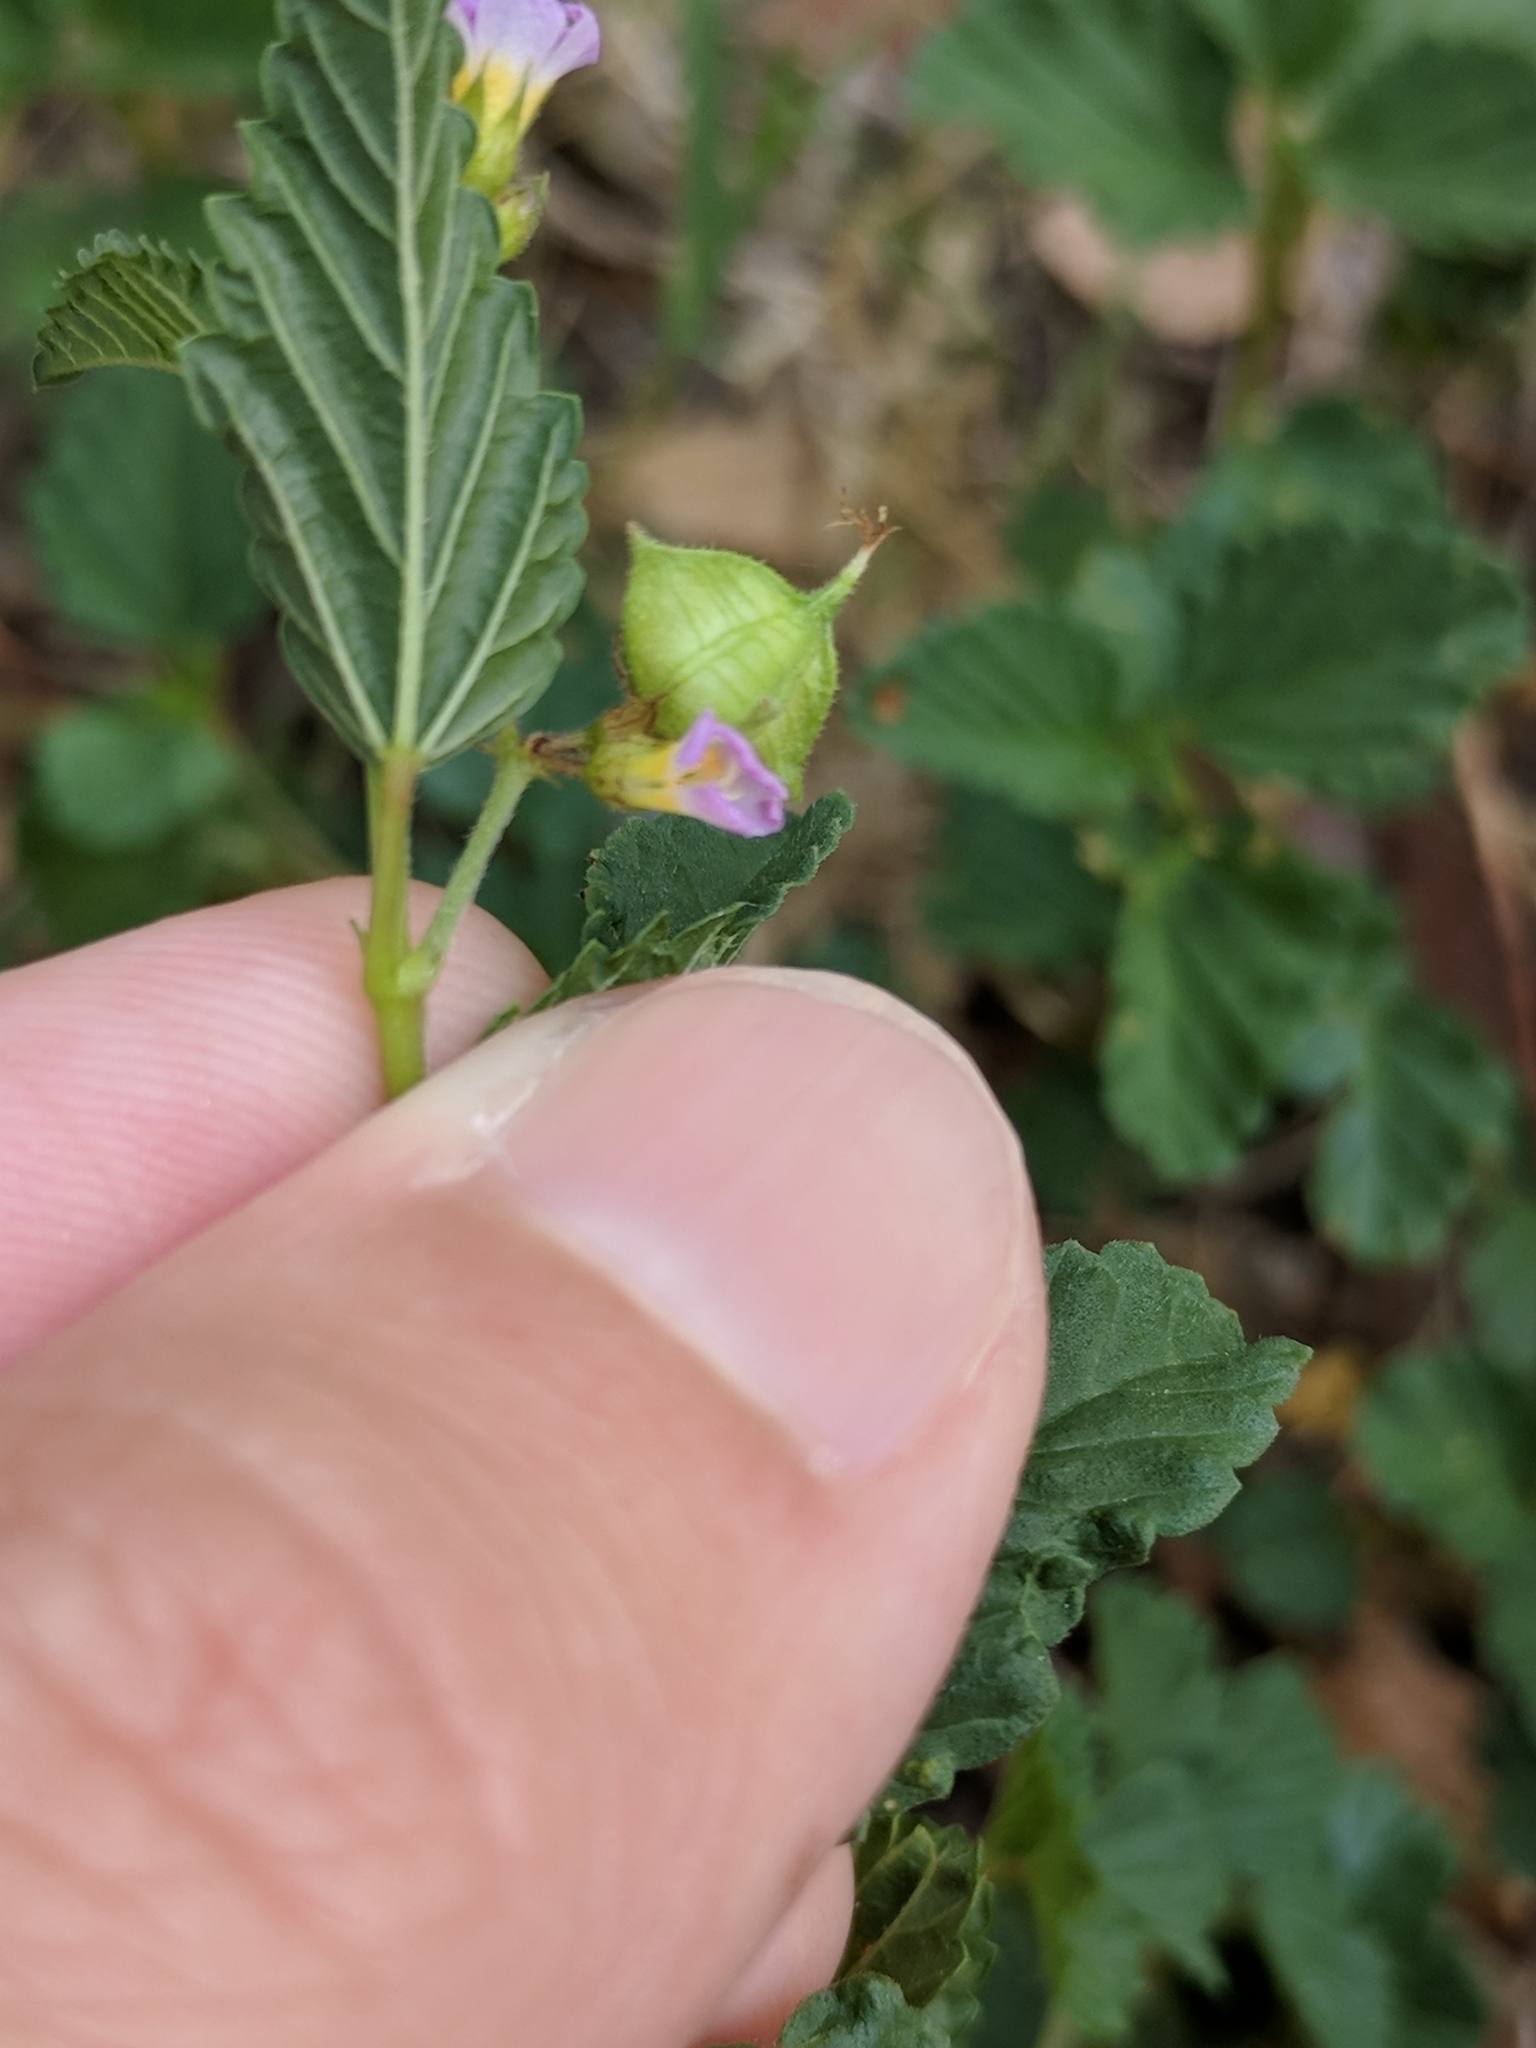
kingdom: Plantae
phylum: Tracheophyta
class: Magnoliopsida
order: Malvales
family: Malvaceae
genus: Melochia
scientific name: Melochia pyramidata
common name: Pyramidflower
